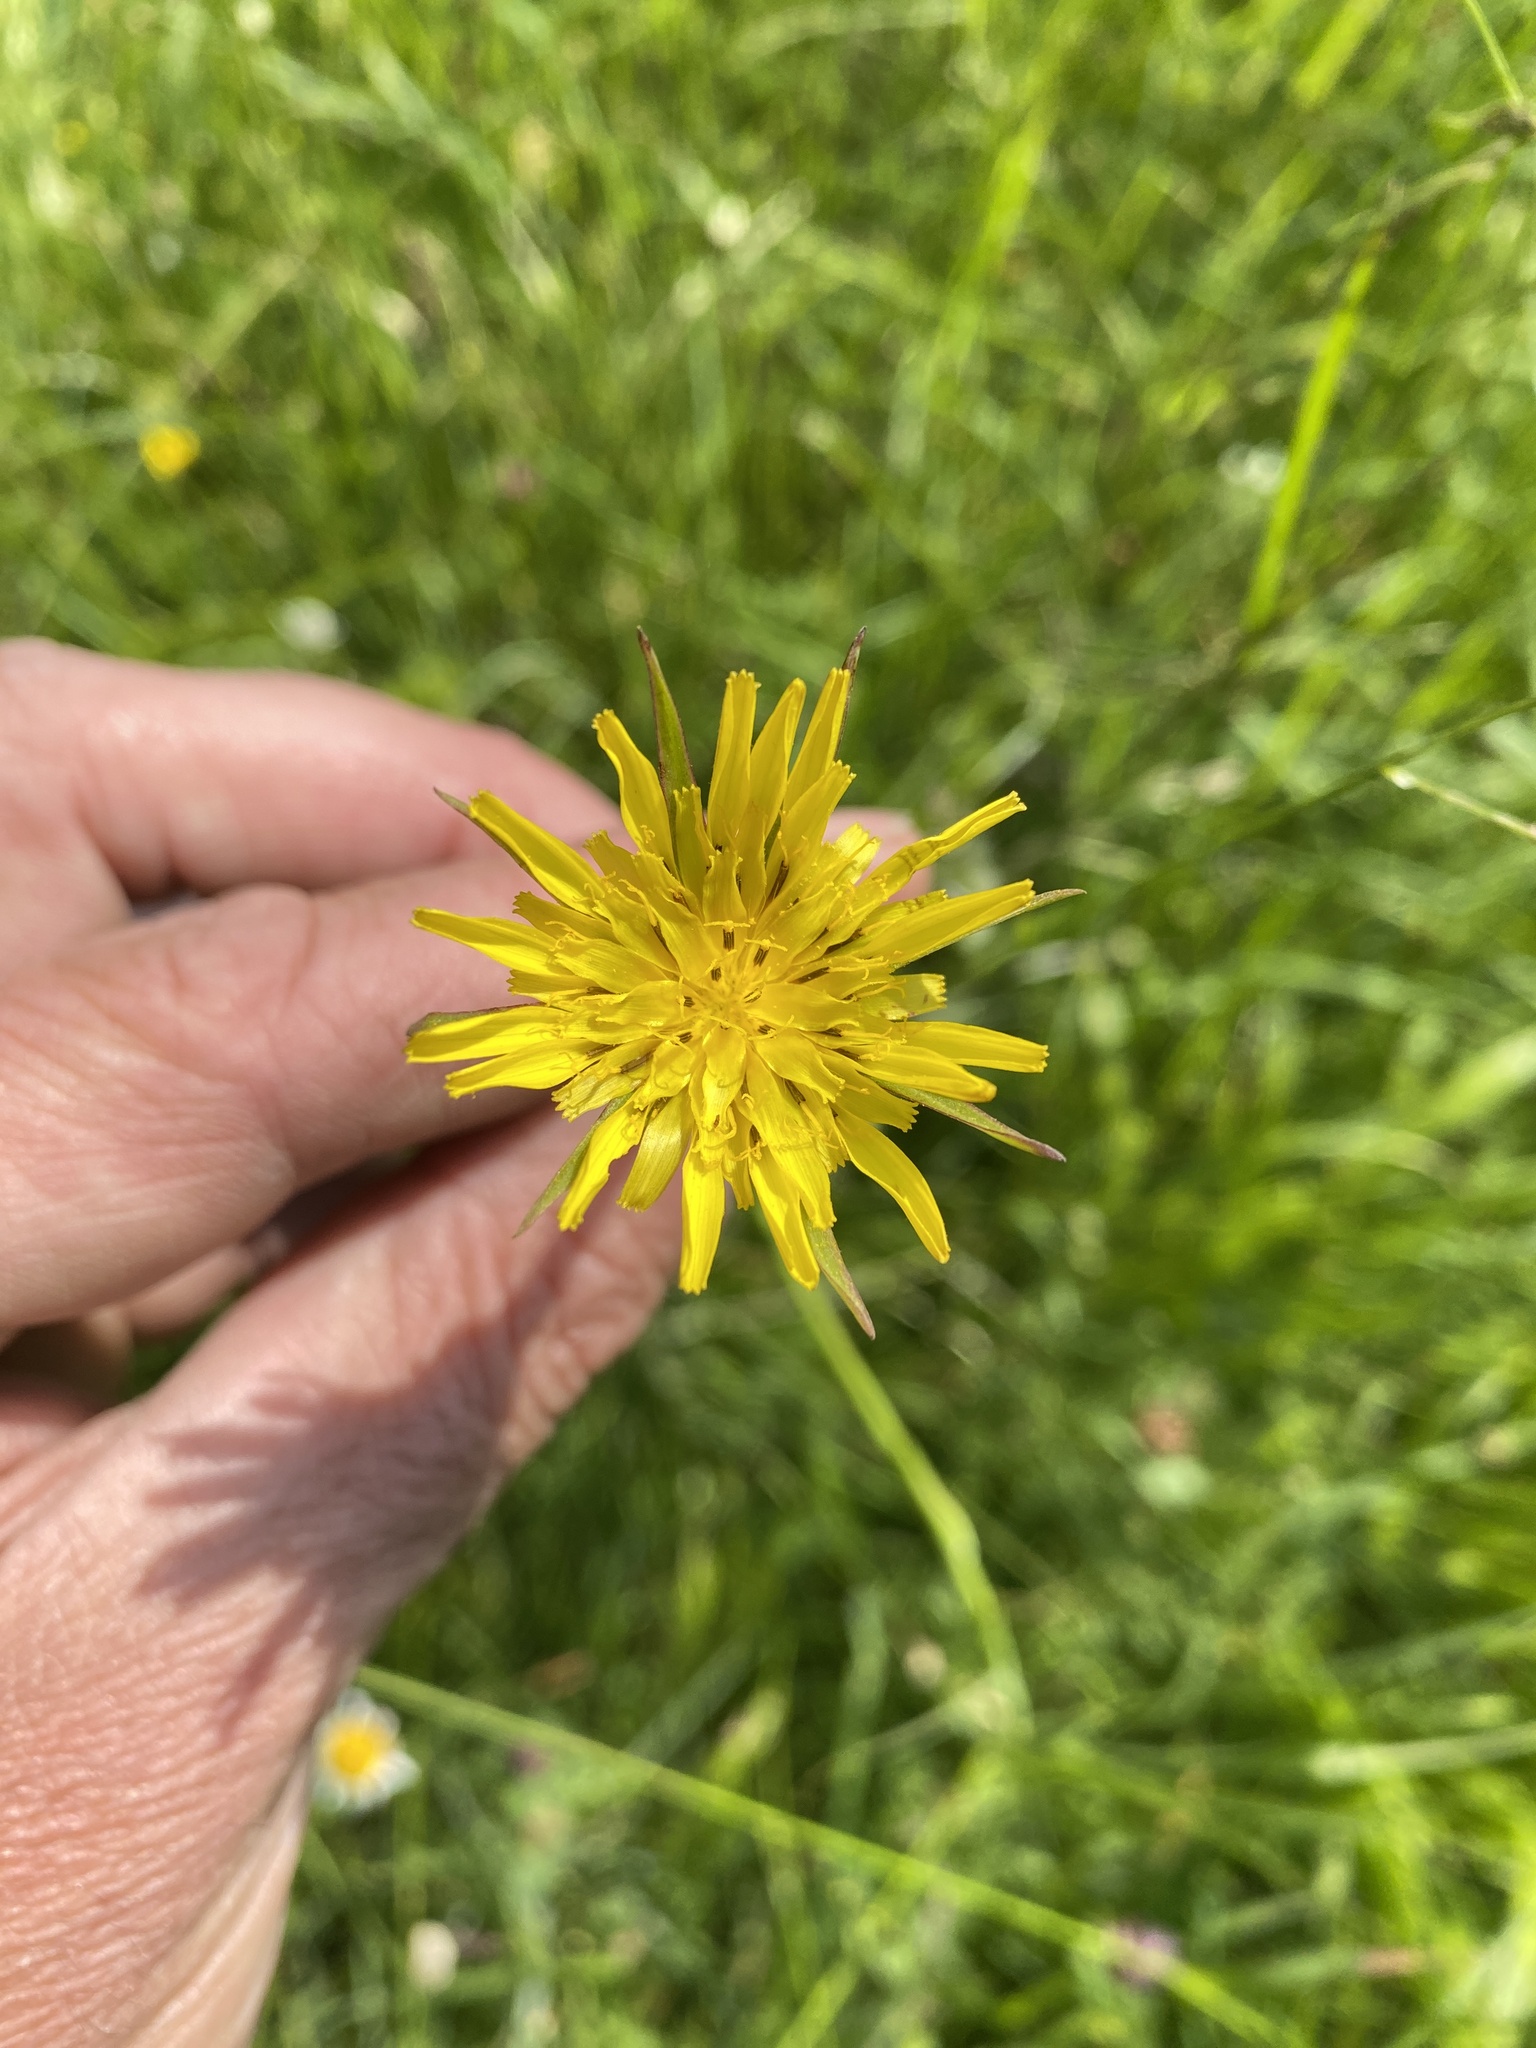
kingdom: Plantae
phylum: Tracheophyta
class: Magnoliopsida
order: Asterales
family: Asteraceae
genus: Tragopogon
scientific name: Tragopogon pratensis
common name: Goat's-beard
